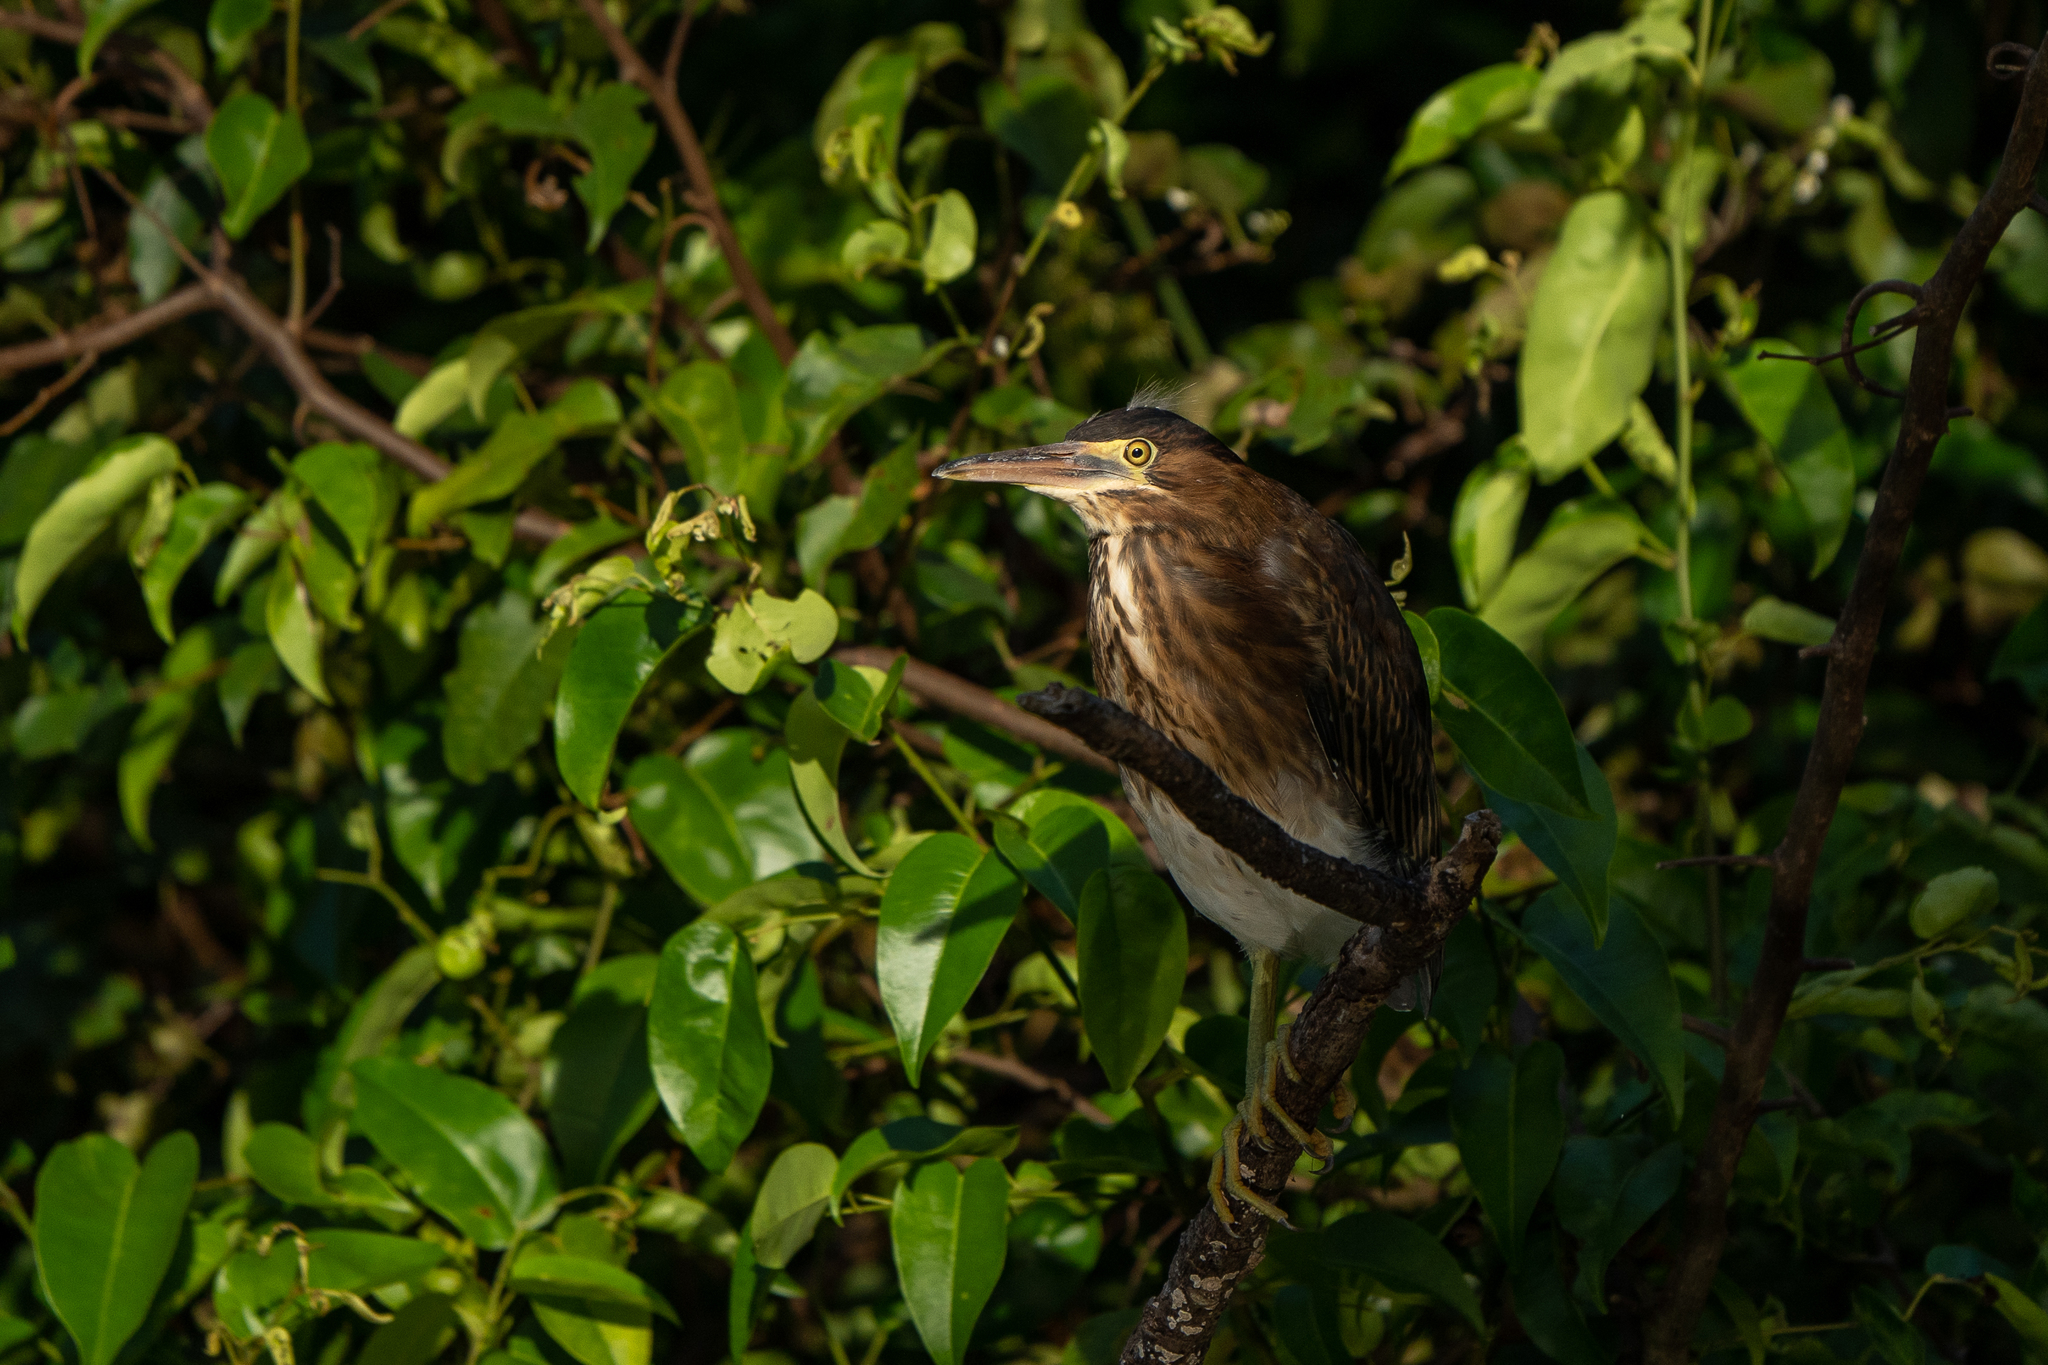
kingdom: Animalia
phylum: Chordata
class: Aves
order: Pelecaniformes
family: Ardeidae
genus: Butorides
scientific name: Butorides virescens
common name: Green heron
